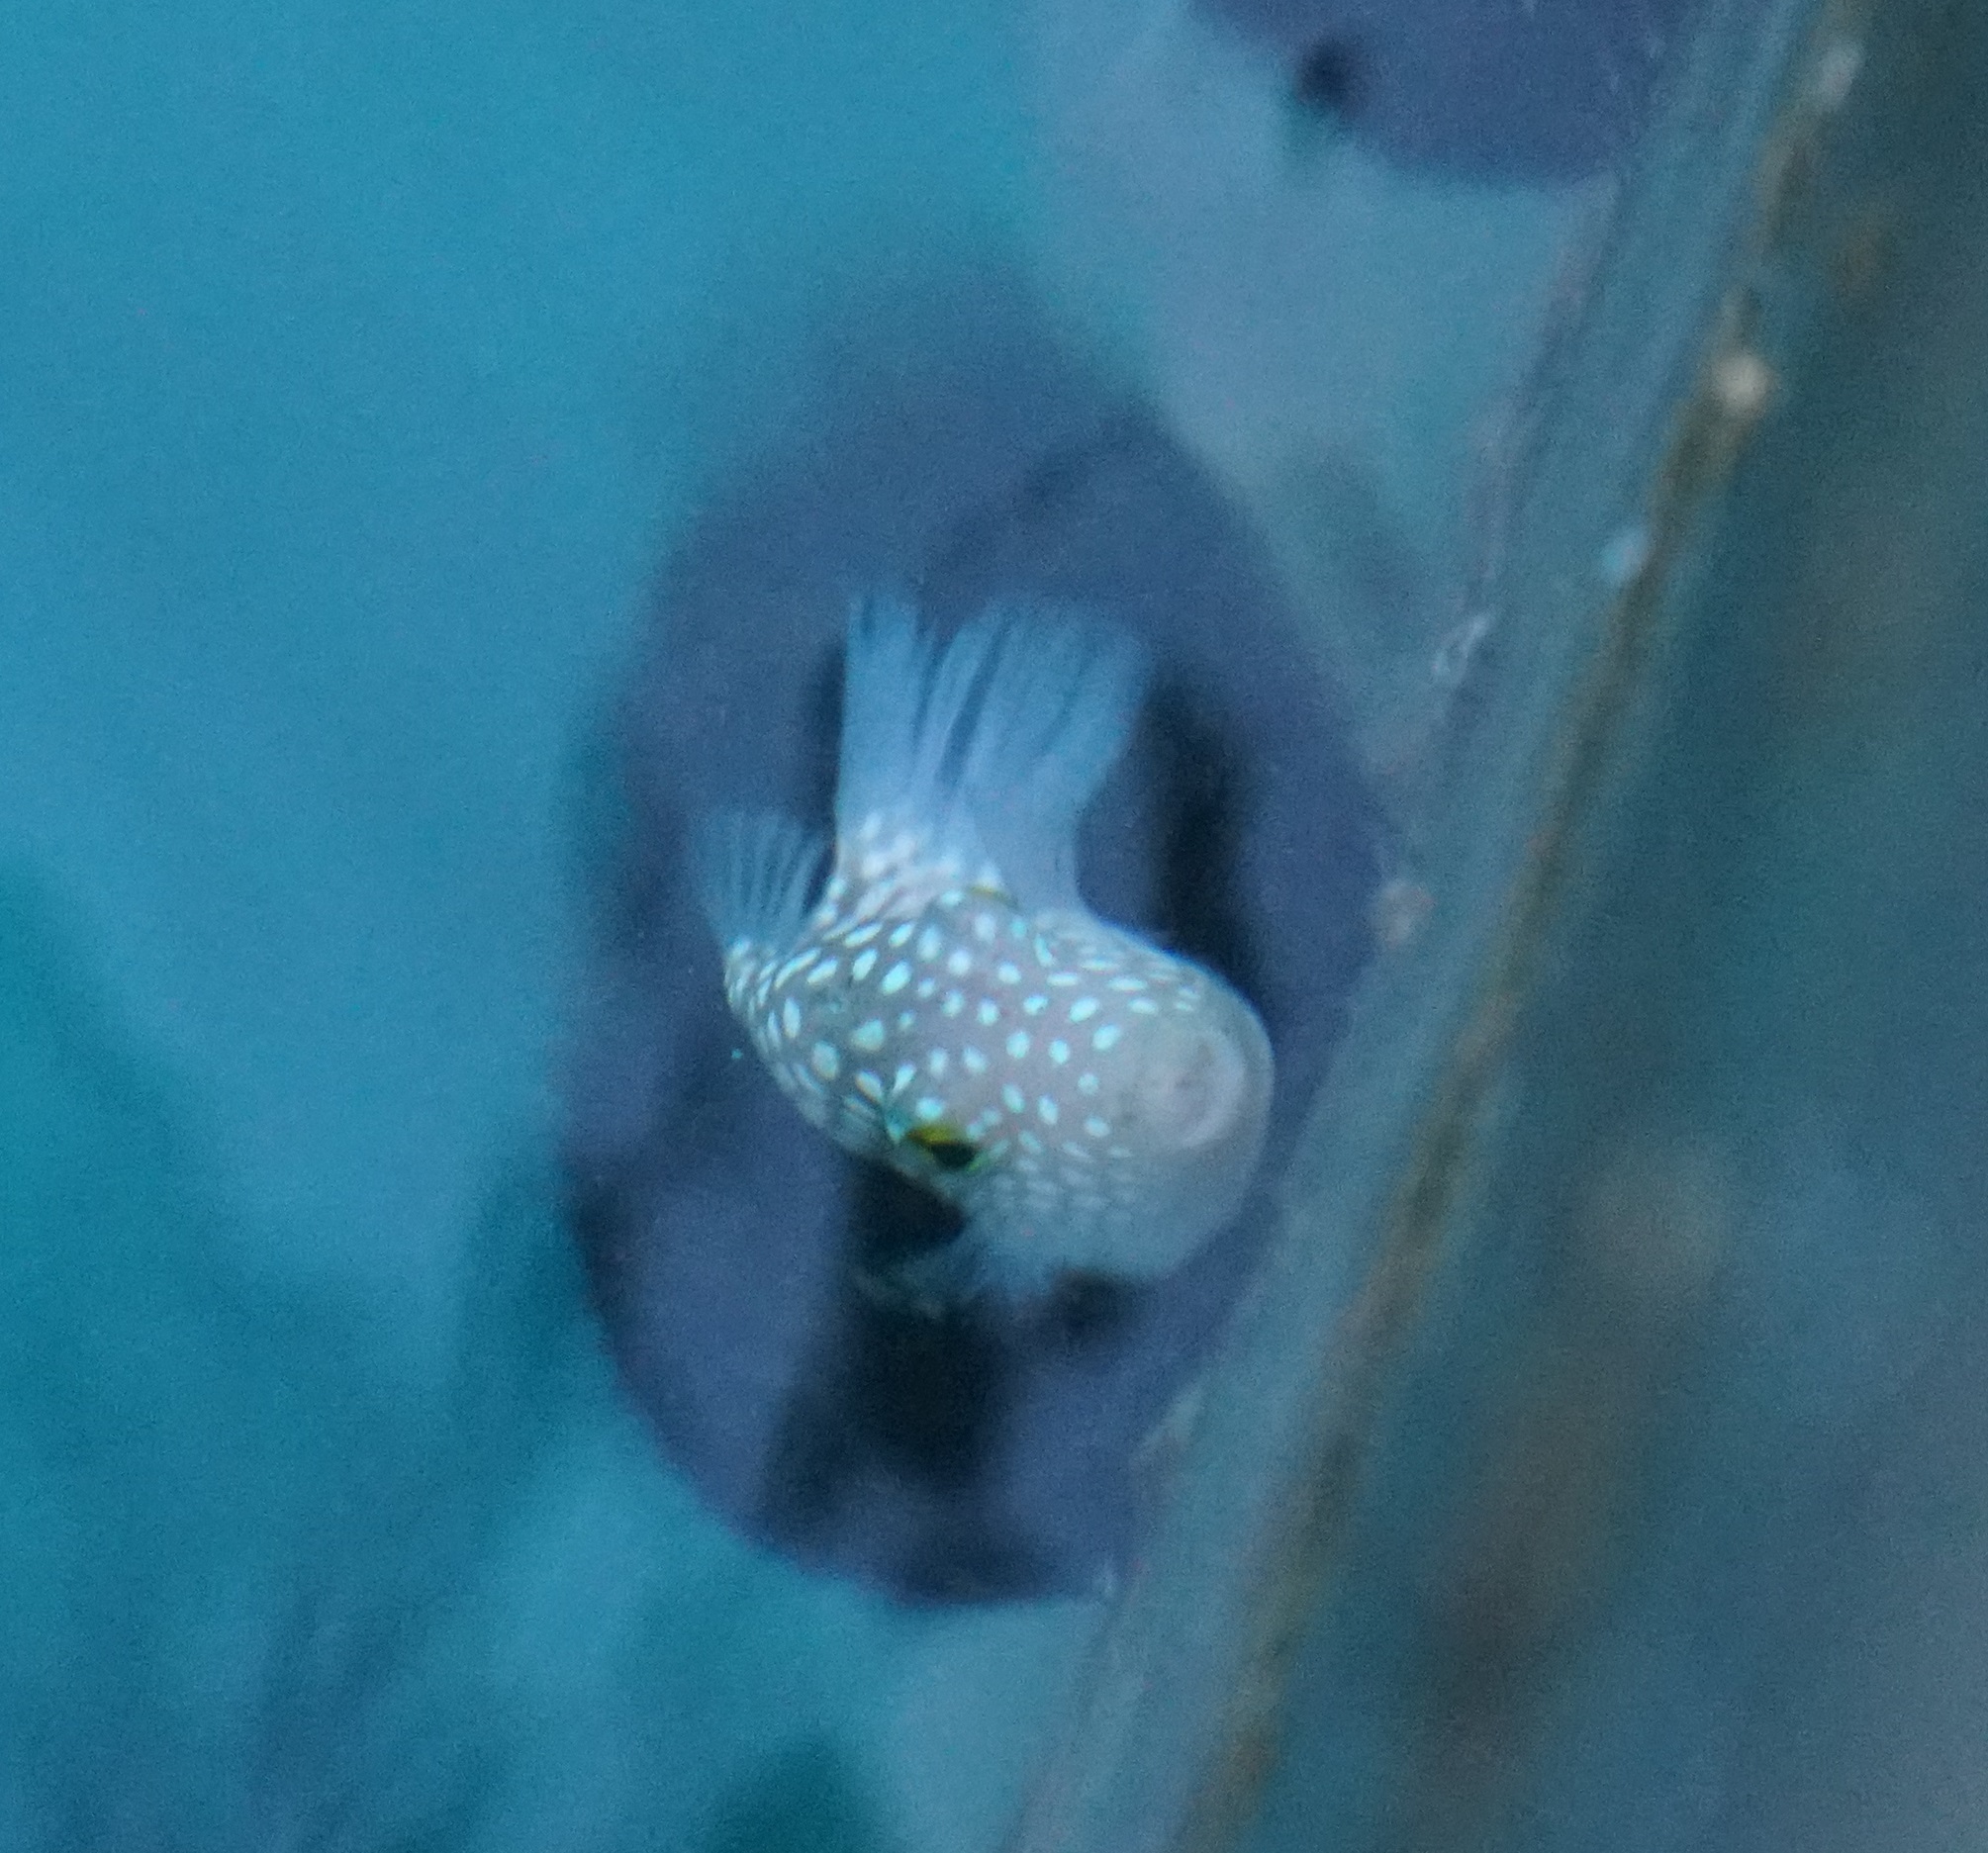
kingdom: Animalia
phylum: Chordata
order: Tetraodontiformes
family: Tetraodontidae
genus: Canthigaster
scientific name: Canthigaster jactator
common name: Hawaiian whitespotted toby
